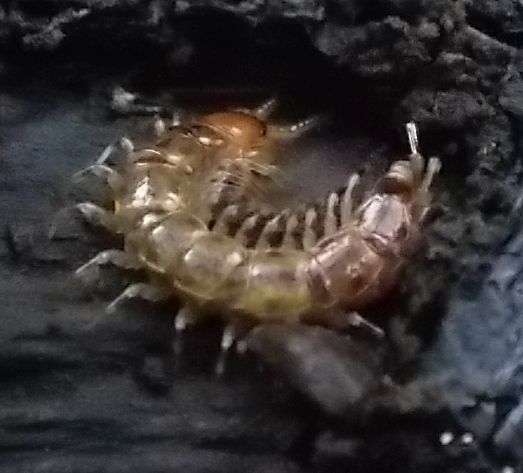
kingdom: Animalia
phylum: Arthropoda
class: Chilopoda
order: Lithobiomorpha
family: Lithobiidae
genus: Lithobius
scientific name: Lithobius variegatus
